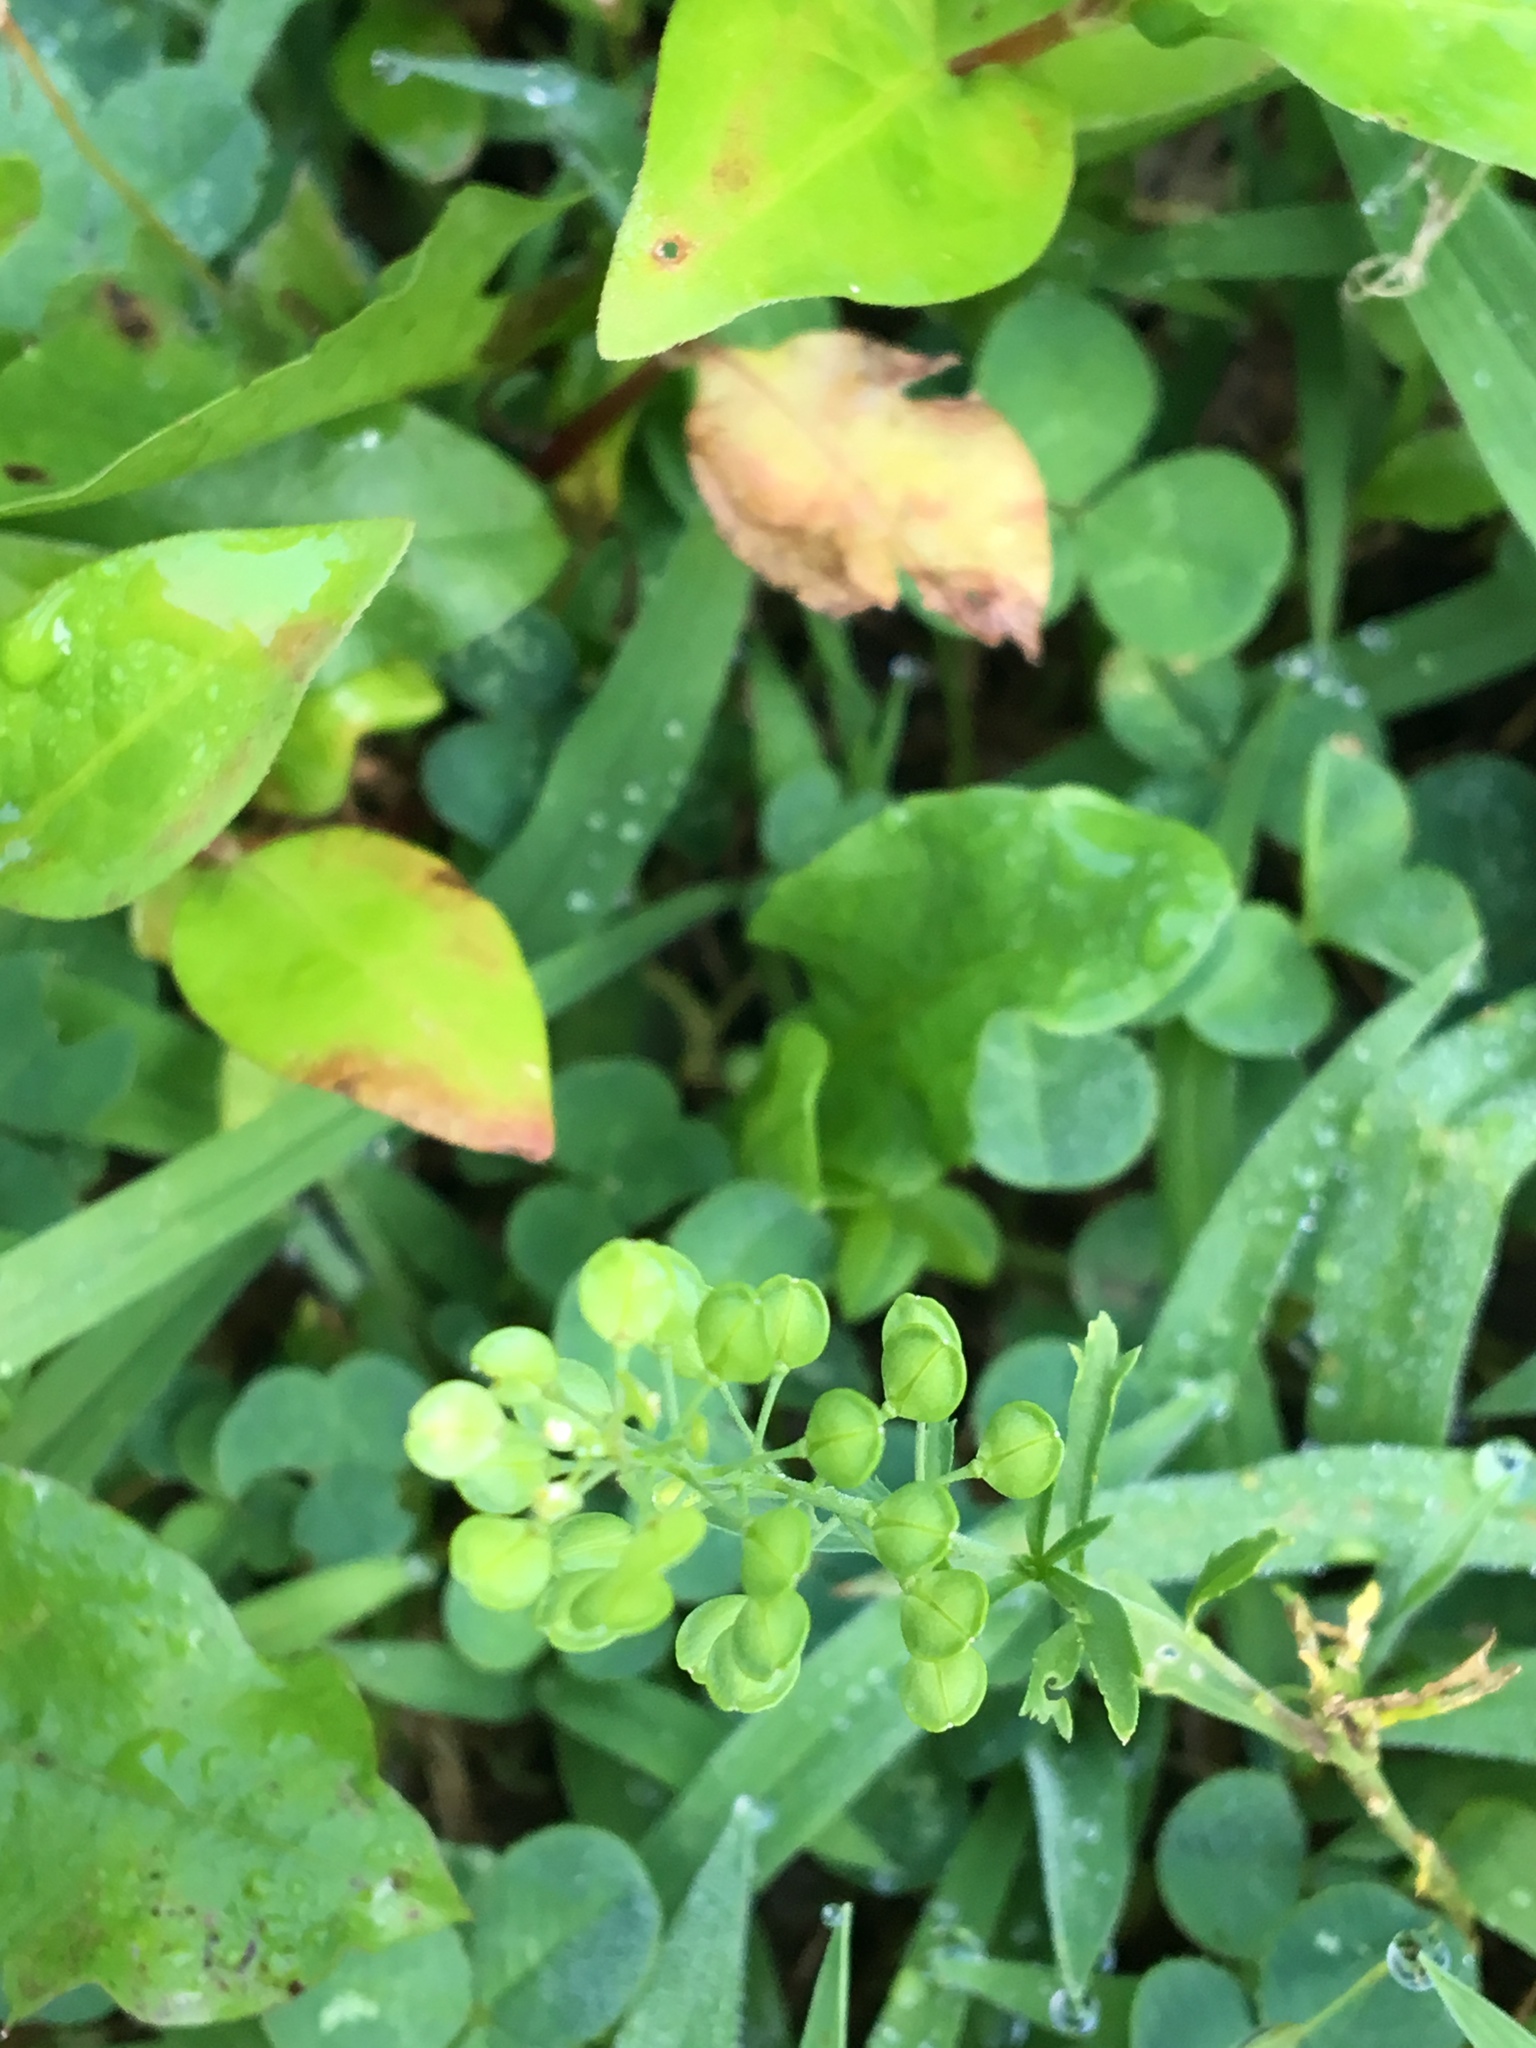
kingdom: Plantae
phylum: Tracheophyta
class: Magnoliopsida
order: Brassicales
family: Brassicaceae
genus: Lepidium
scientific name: Lepidium virginicum
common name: Least pepperwort
